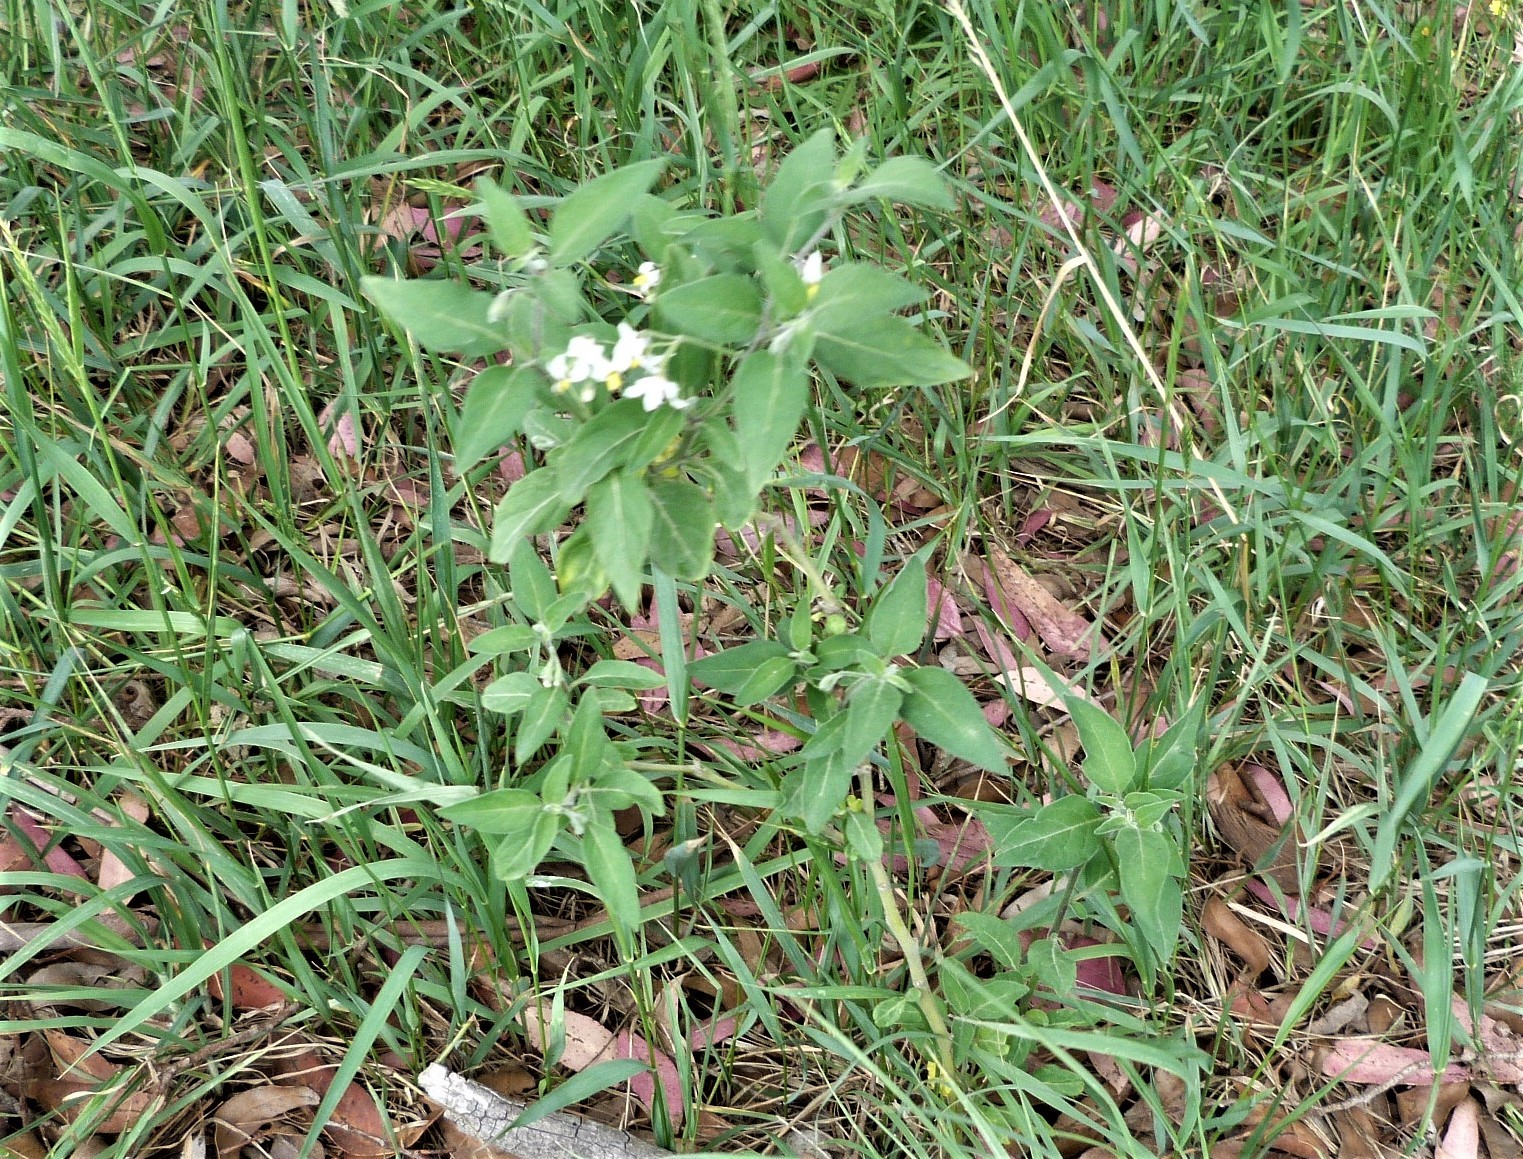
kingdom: Plantae
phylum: Tracheophyta
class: Magnoliopsida
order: Solanales
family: Solanaceae
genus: Solanum
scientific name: Solanum chenopodioides
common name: Tall nightshade
